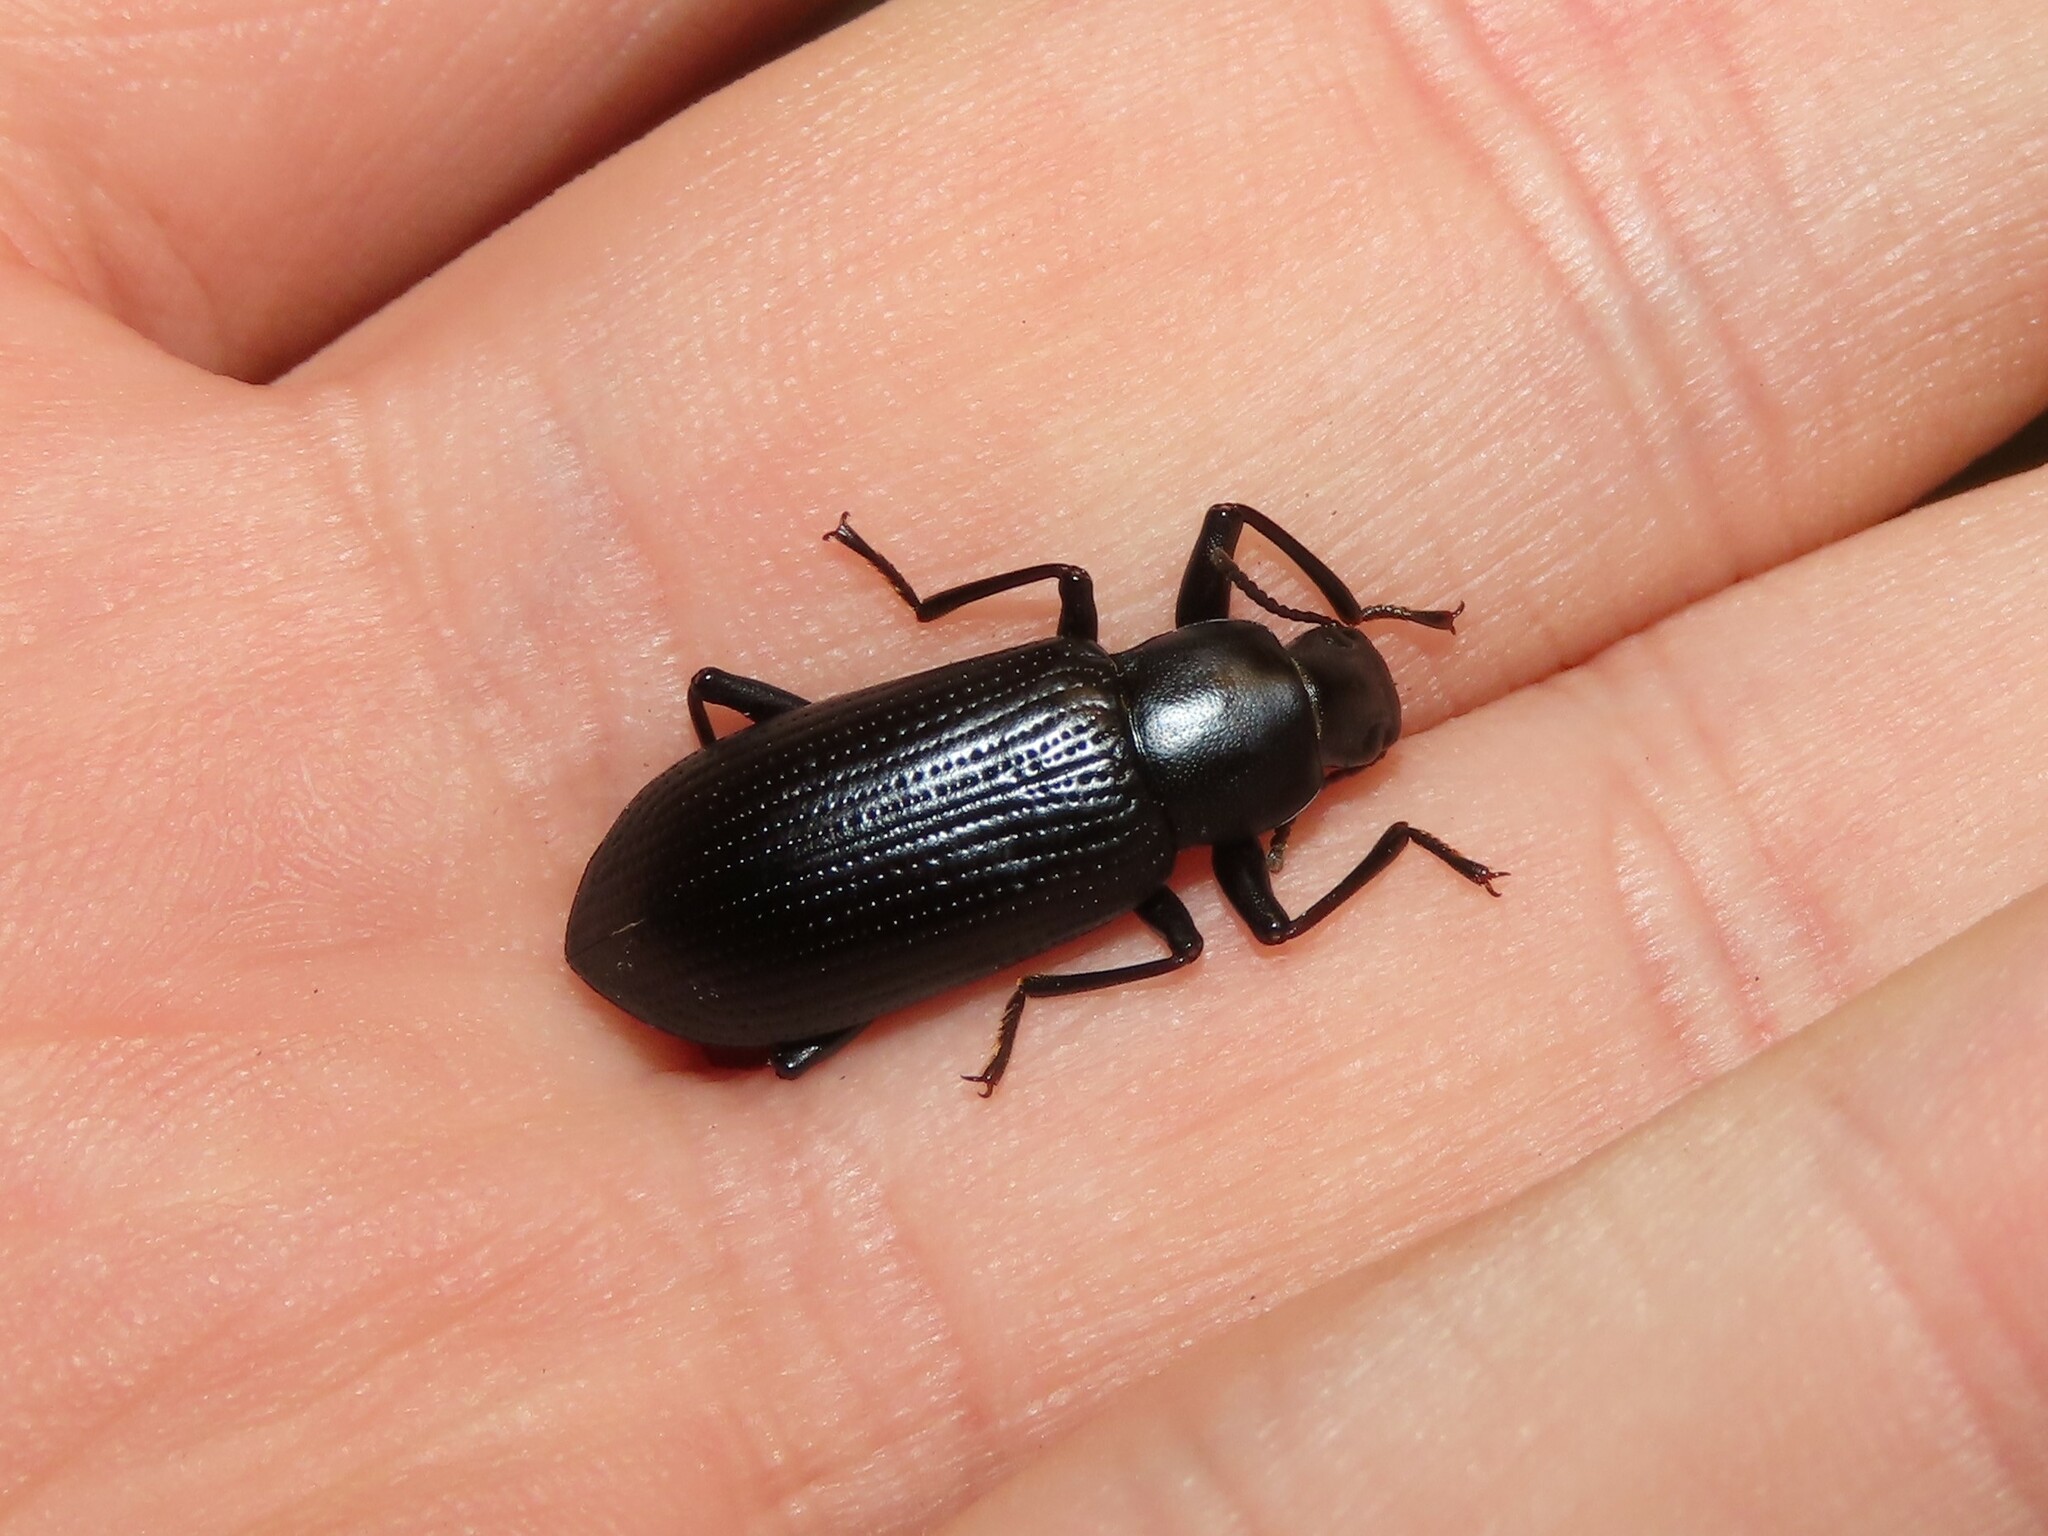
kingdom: Animalia
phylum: Arthropoda
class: Insecta
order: Coleoptera
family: Tenebrionidae
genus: Alobates
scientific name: Alobates barbatus
